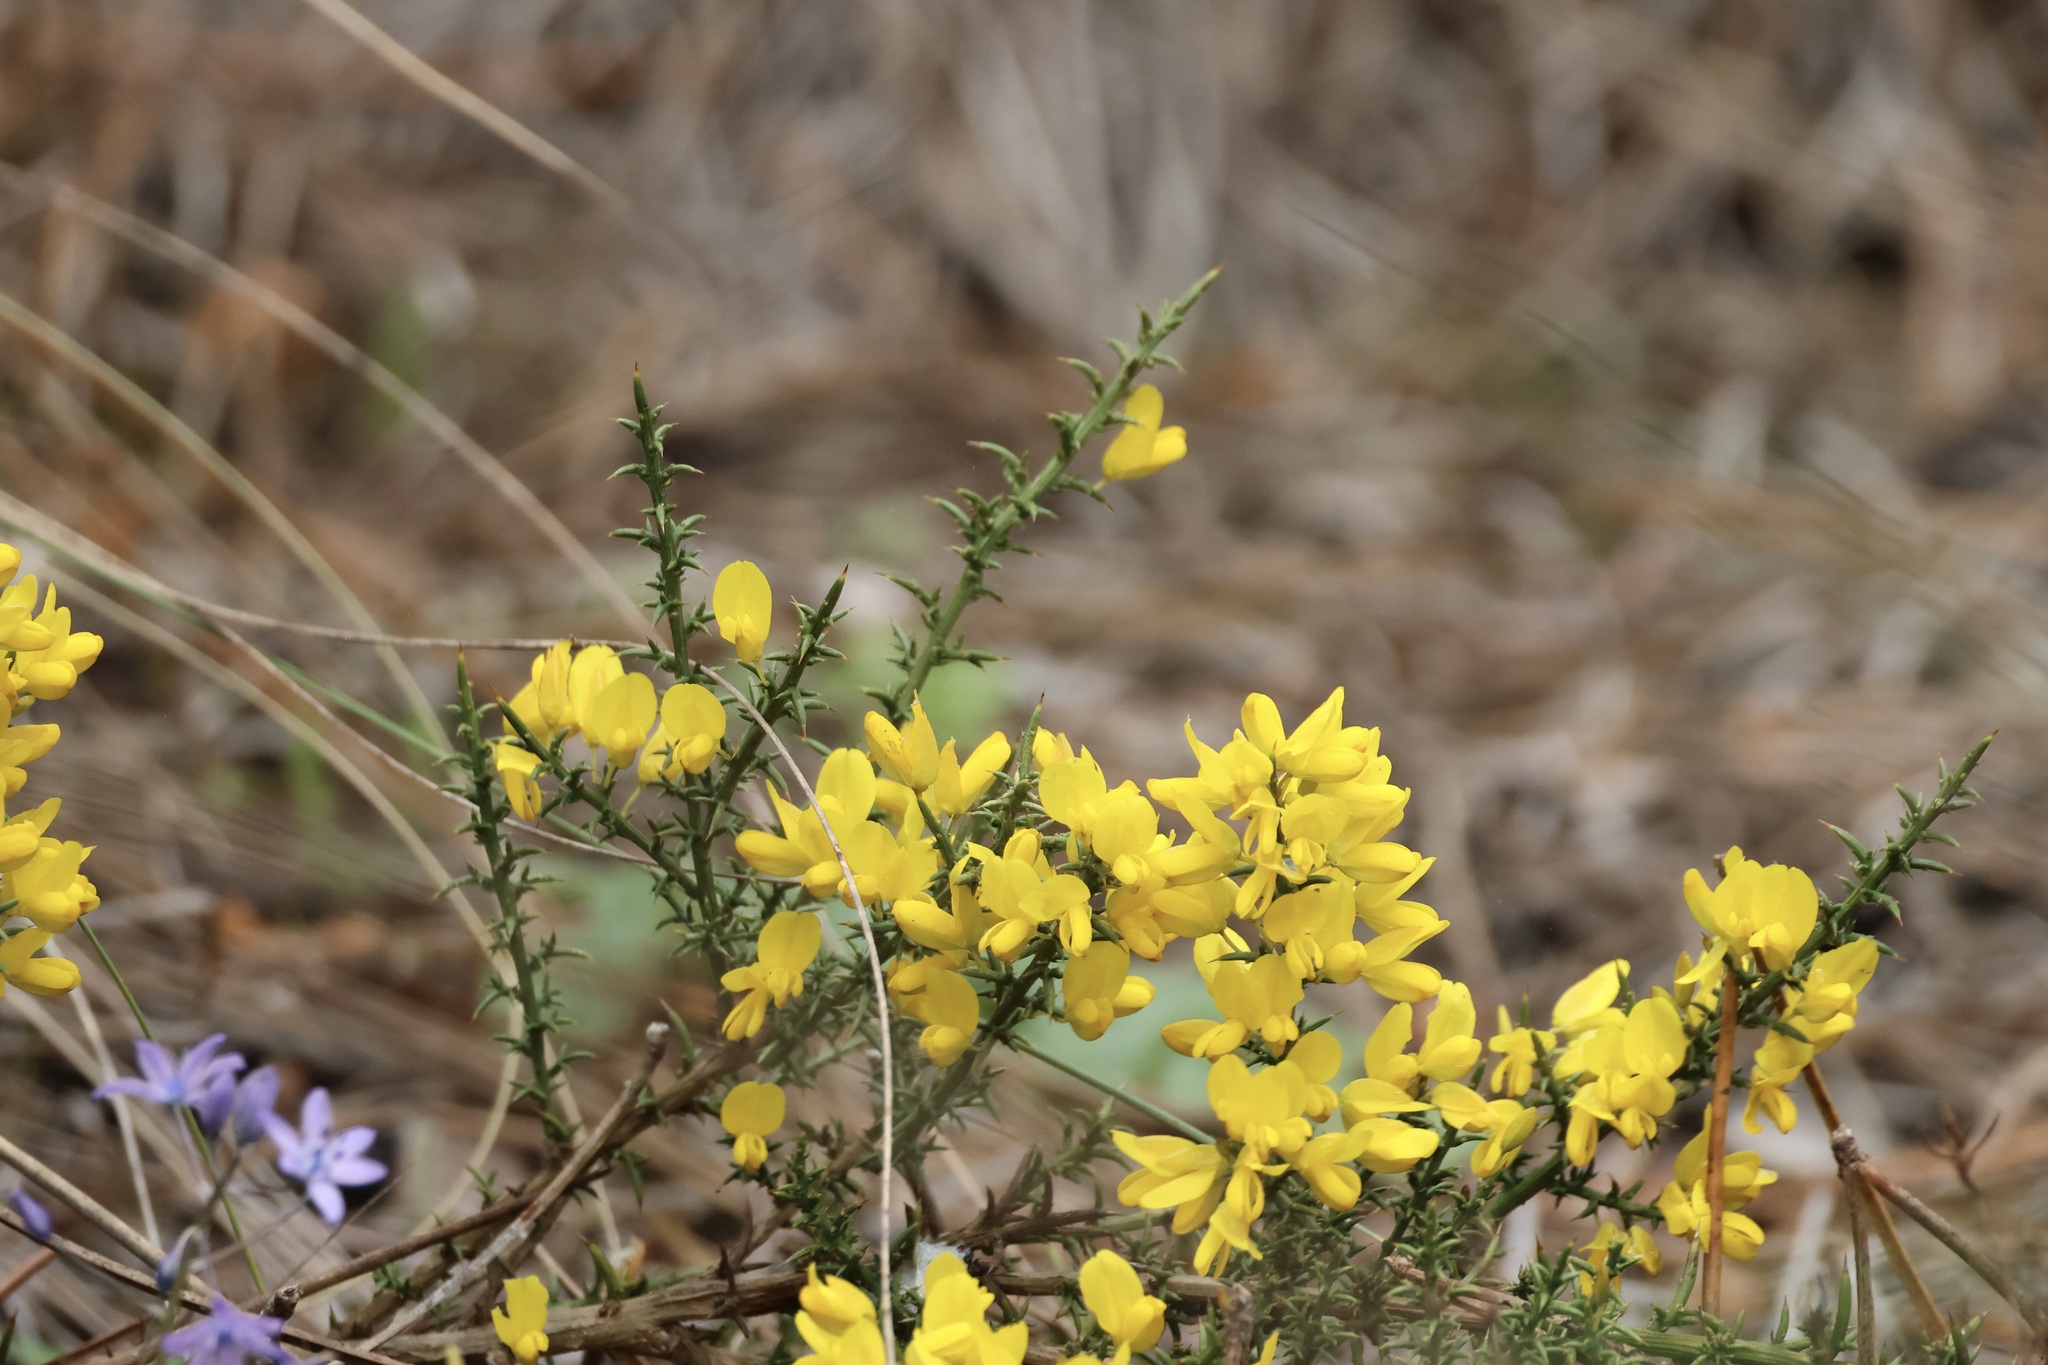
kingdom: Plantae
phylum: Tracheophyta
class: Magnoliopsida
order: Fabales
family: Fabaceae
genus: Ulex
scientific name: Ulex australis
